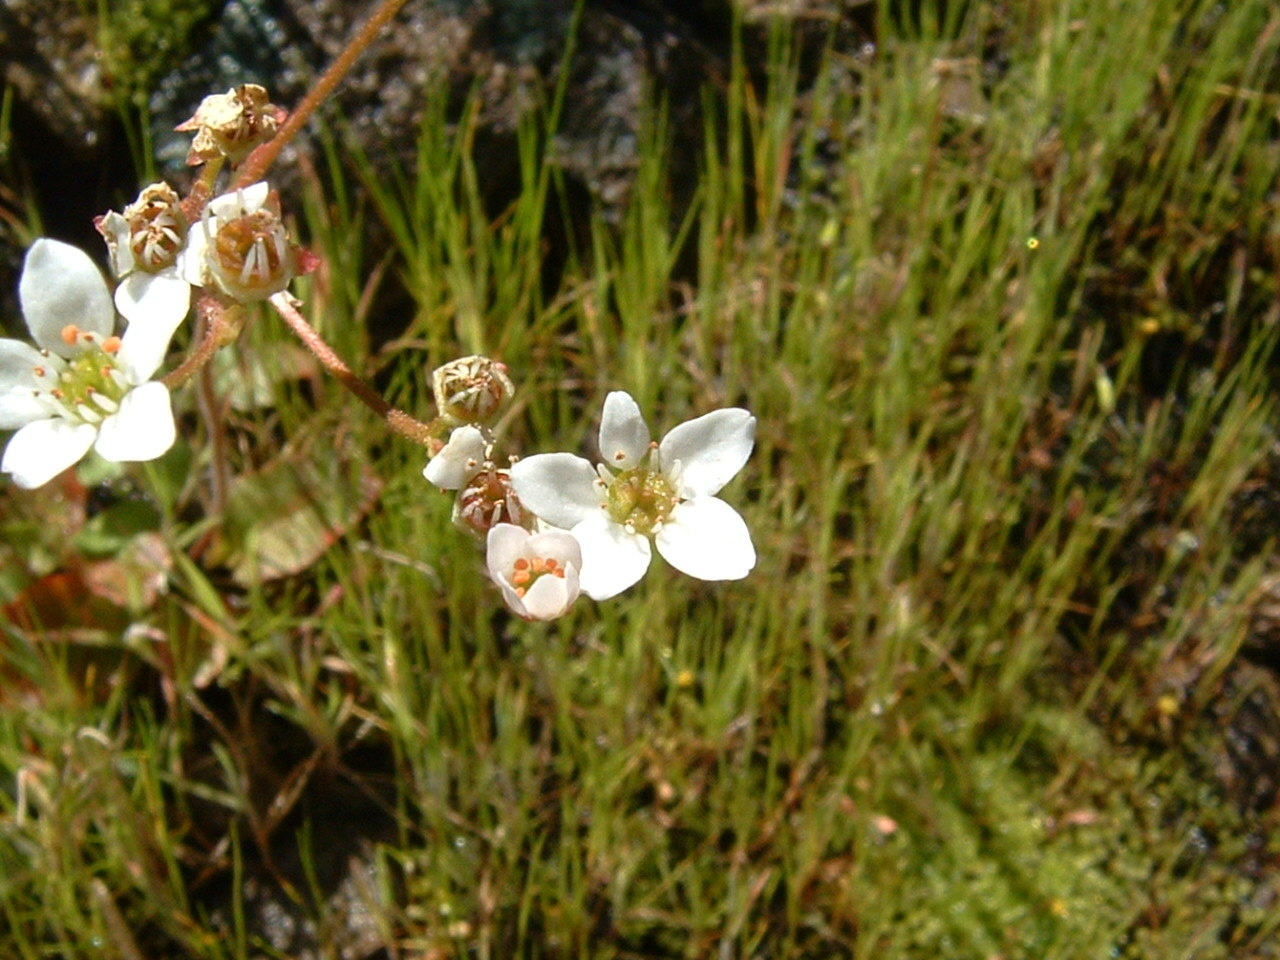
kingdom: Plantae
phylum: Tracheophyta
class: Magnoliopsida
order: Saxifragales
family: Saxifragaceae
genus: Micranthes
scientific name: Micranthes californica
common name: California saxifrage
